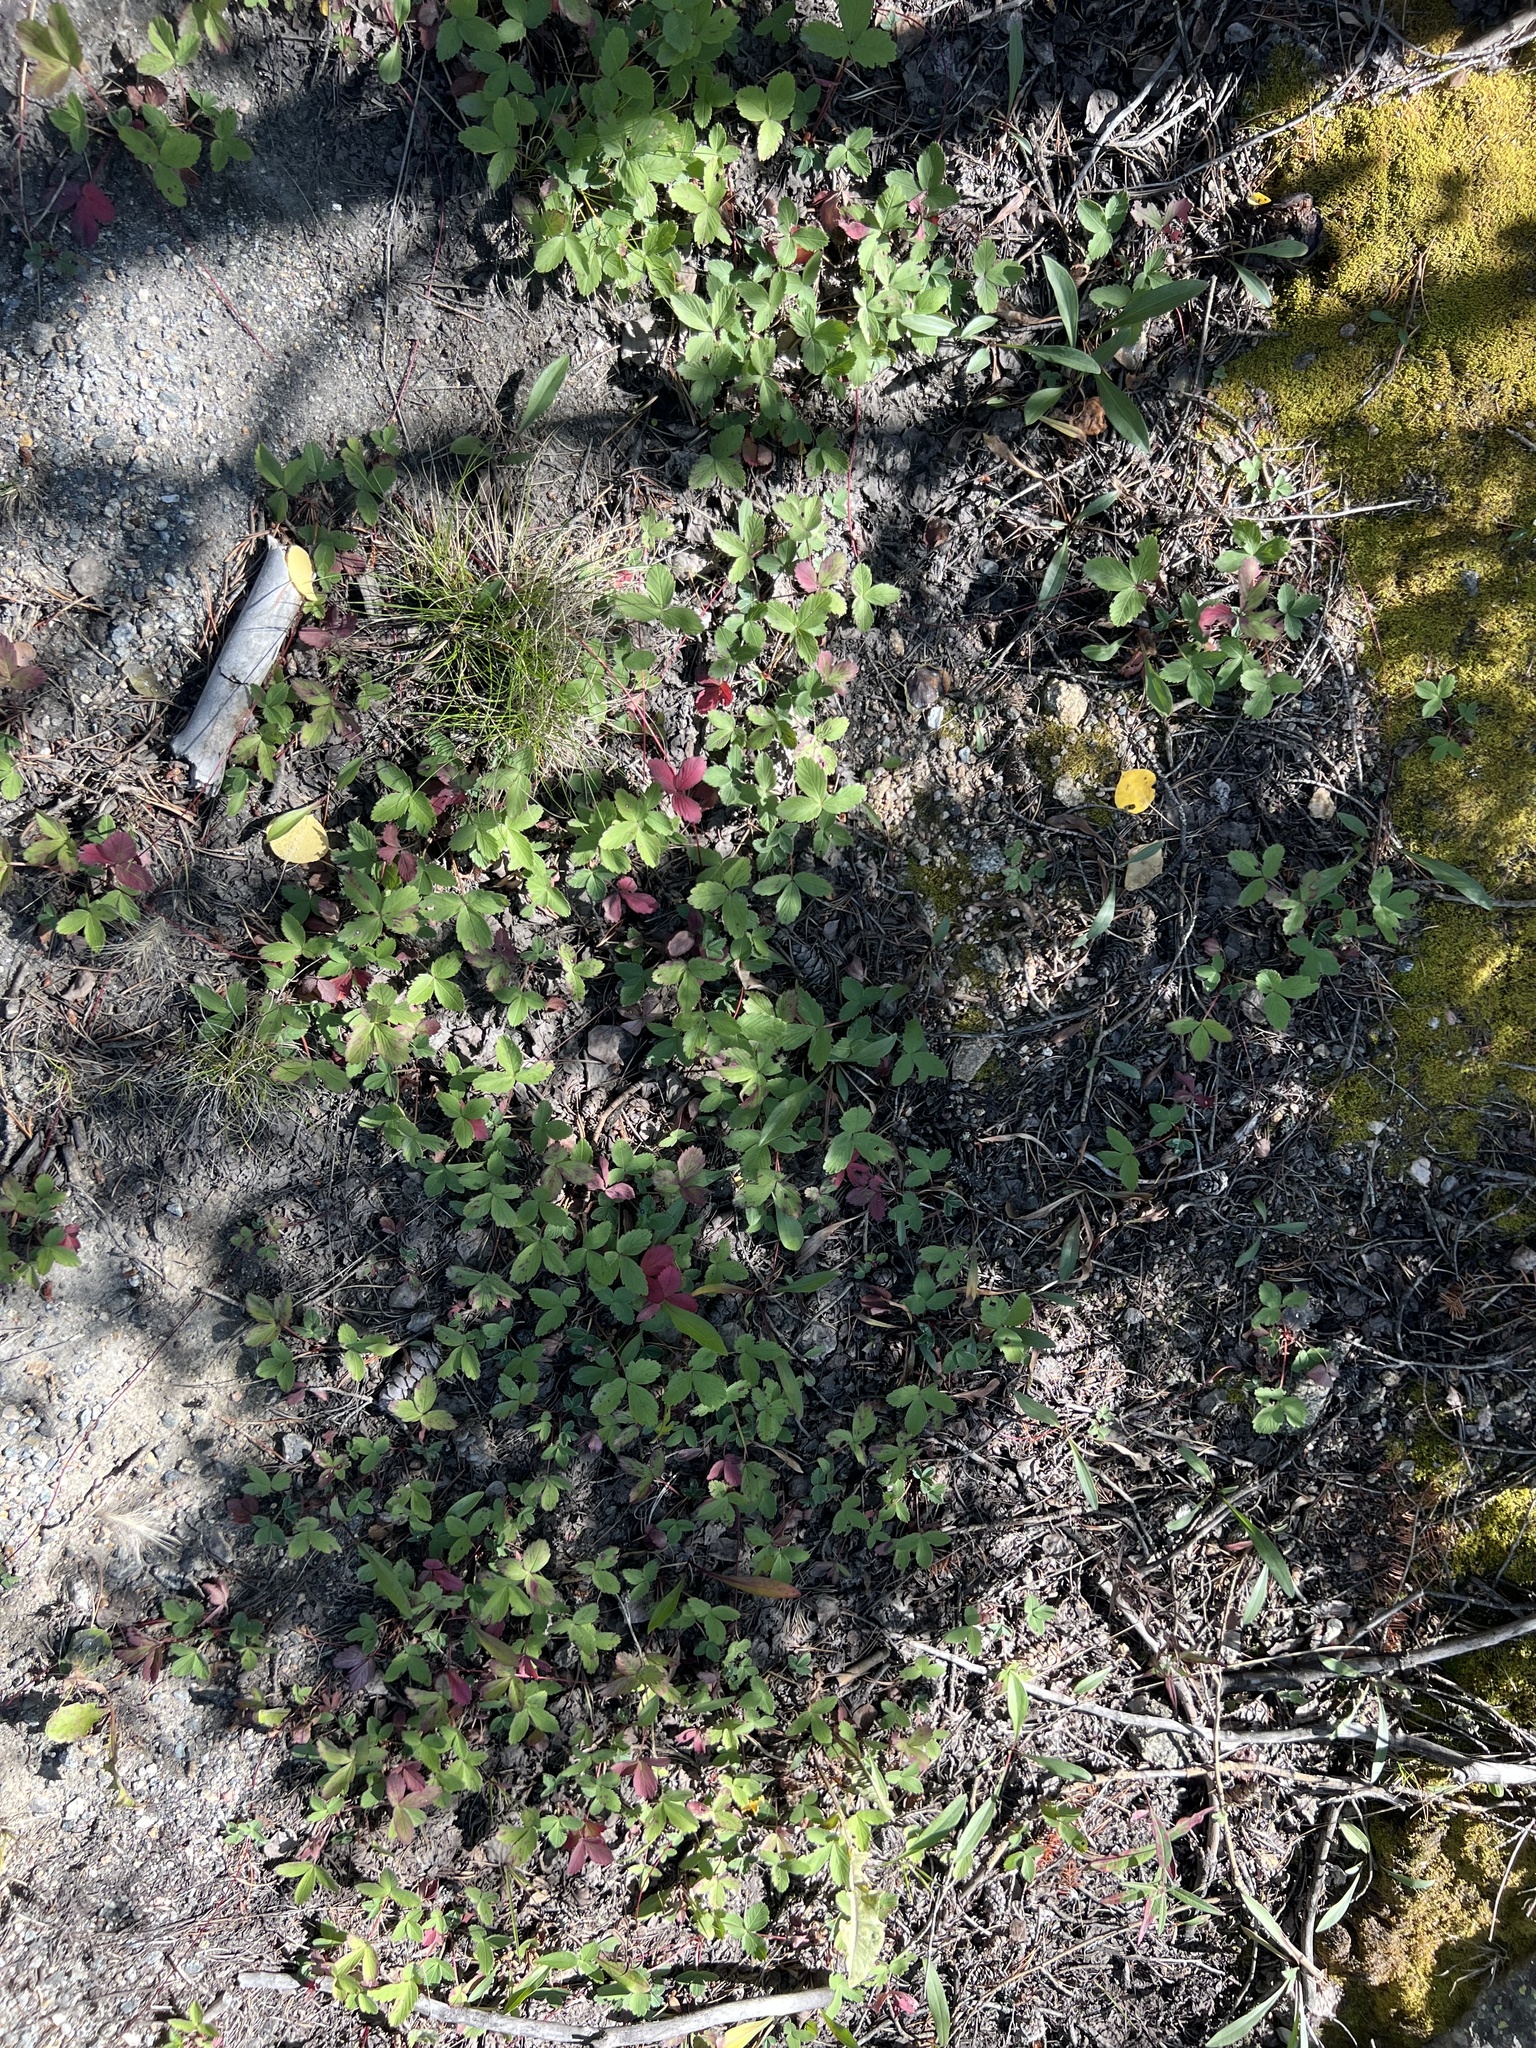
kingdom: Plantae
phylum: Tracheophyta
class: Magnoliopsida
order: Rosales
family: Rosaceae
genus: Fragaria
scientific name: Fragaria virginiana
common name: Thickleaved wild strawberry
